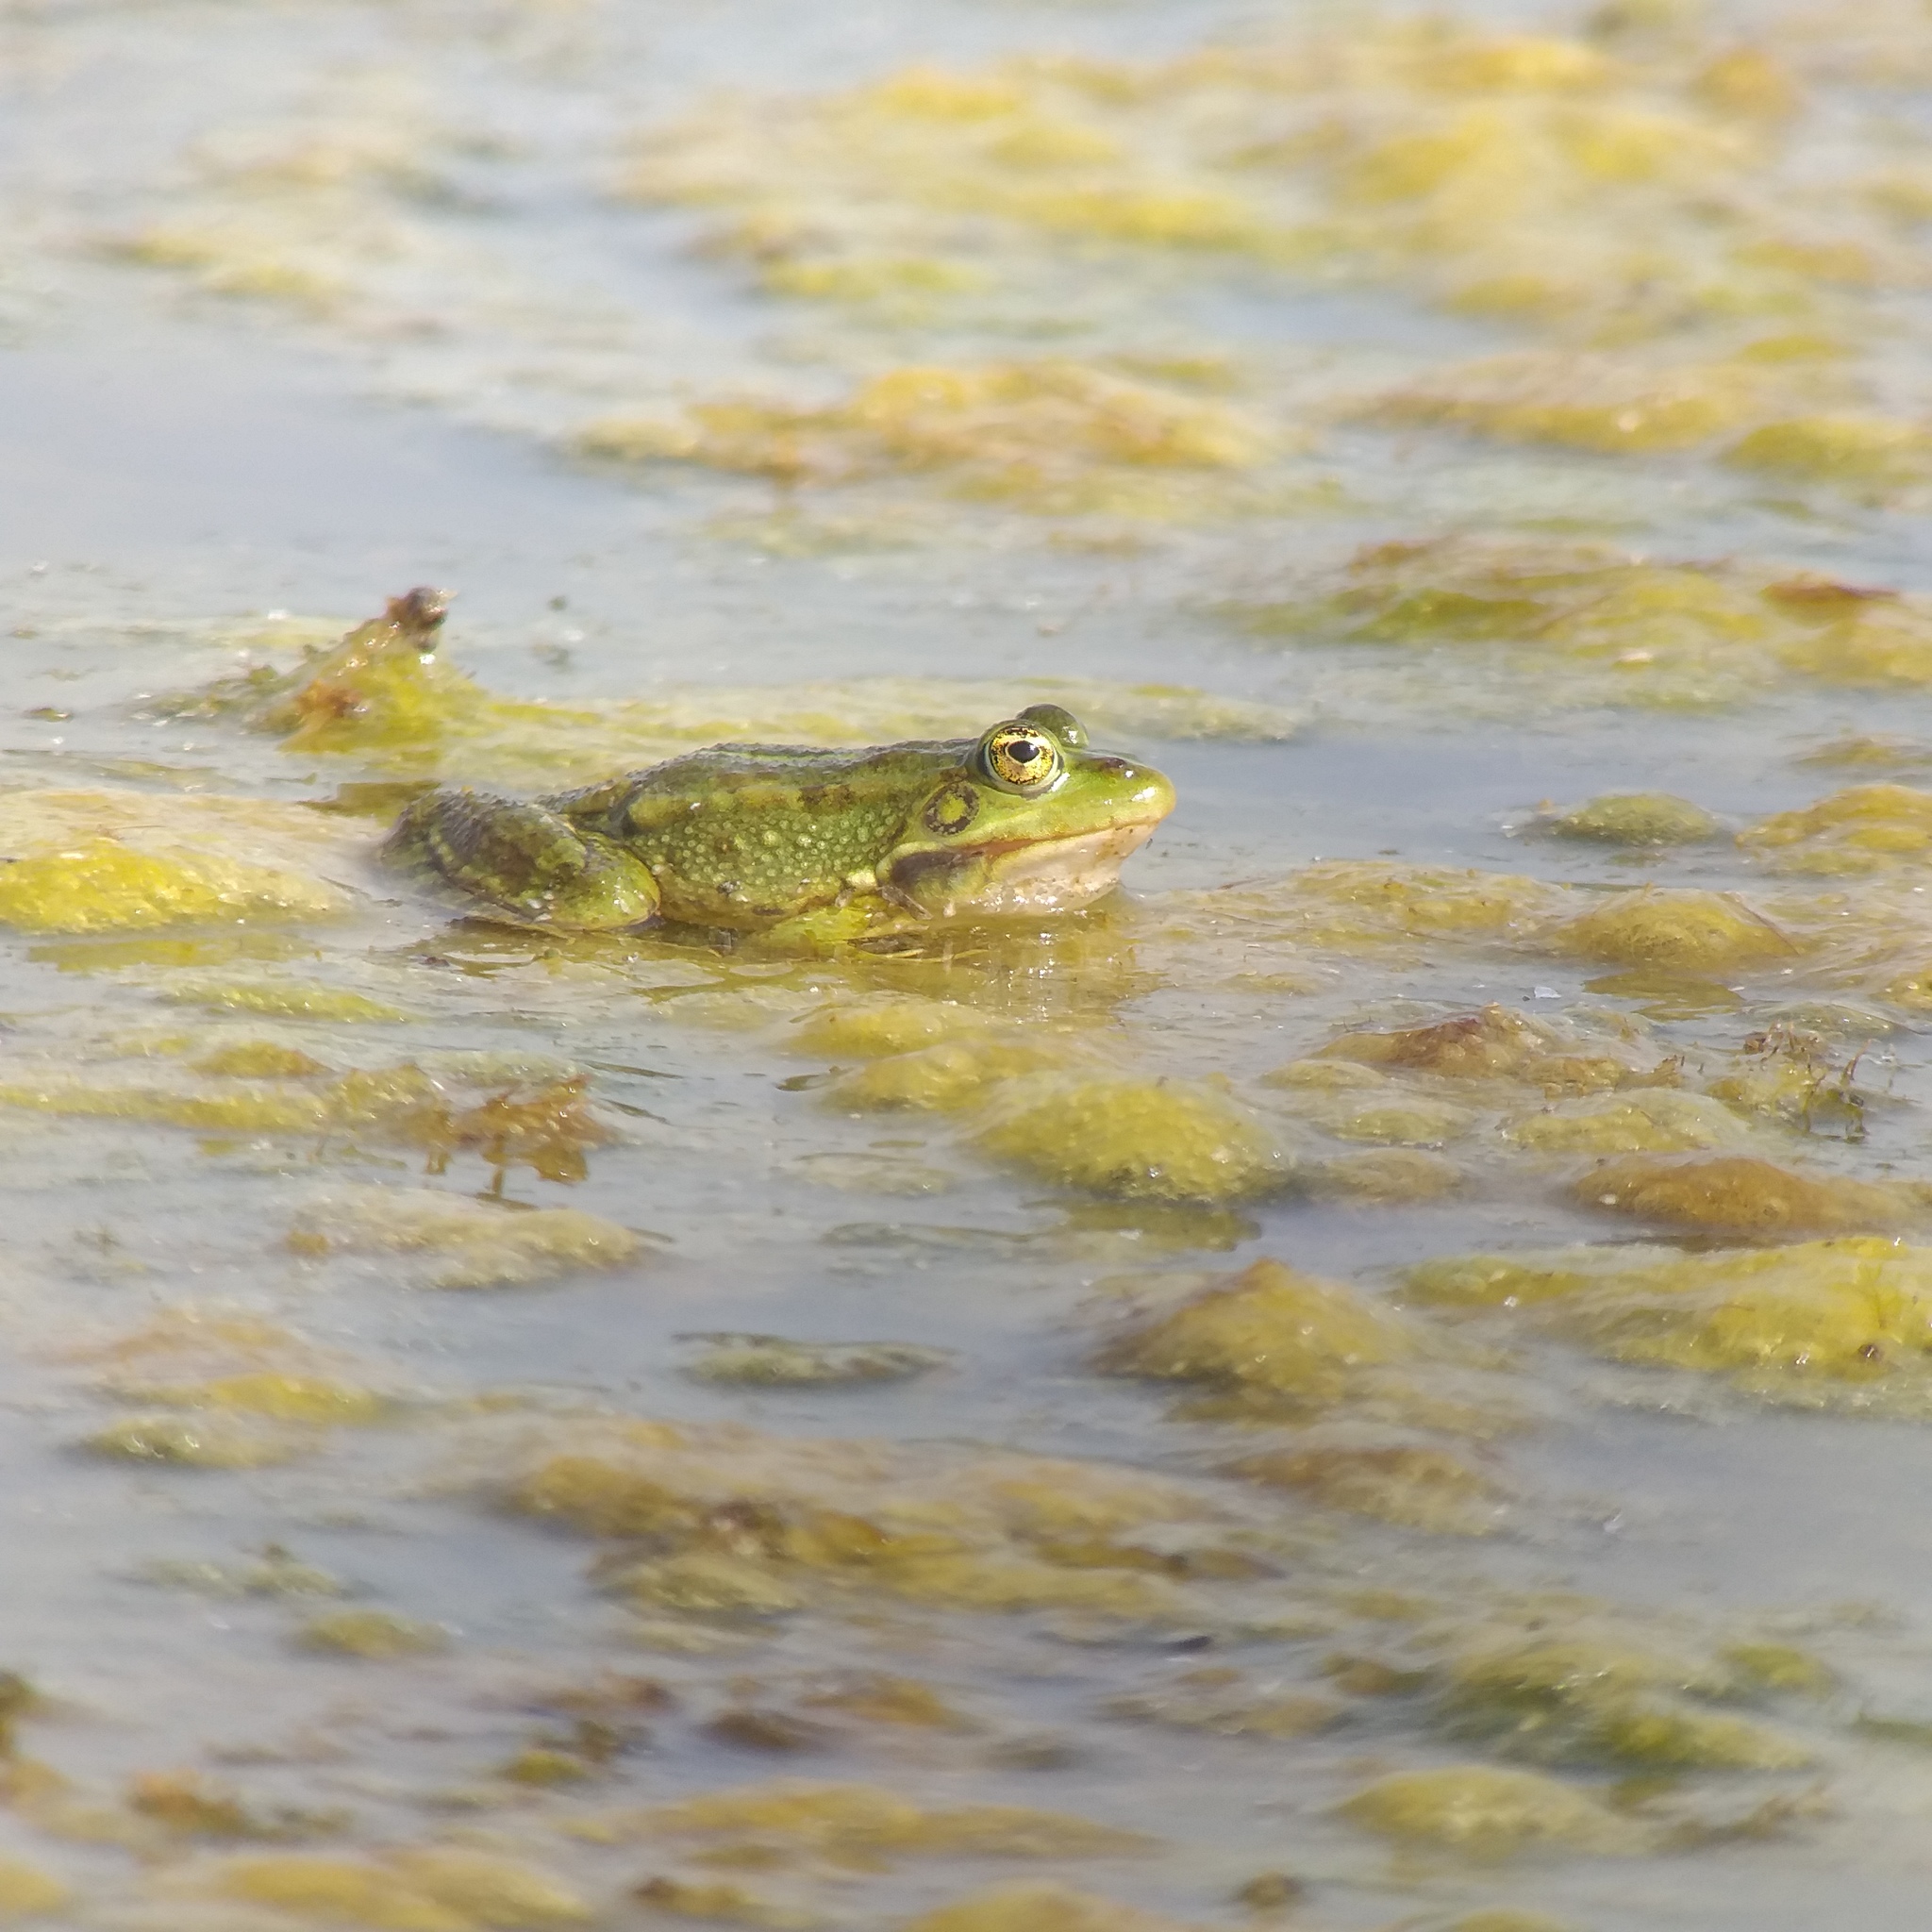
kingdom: Animalia
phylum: Chordata
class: Amphibia
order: Anura
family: Ranidae
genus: Pelophylax
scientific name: Pelophylax
